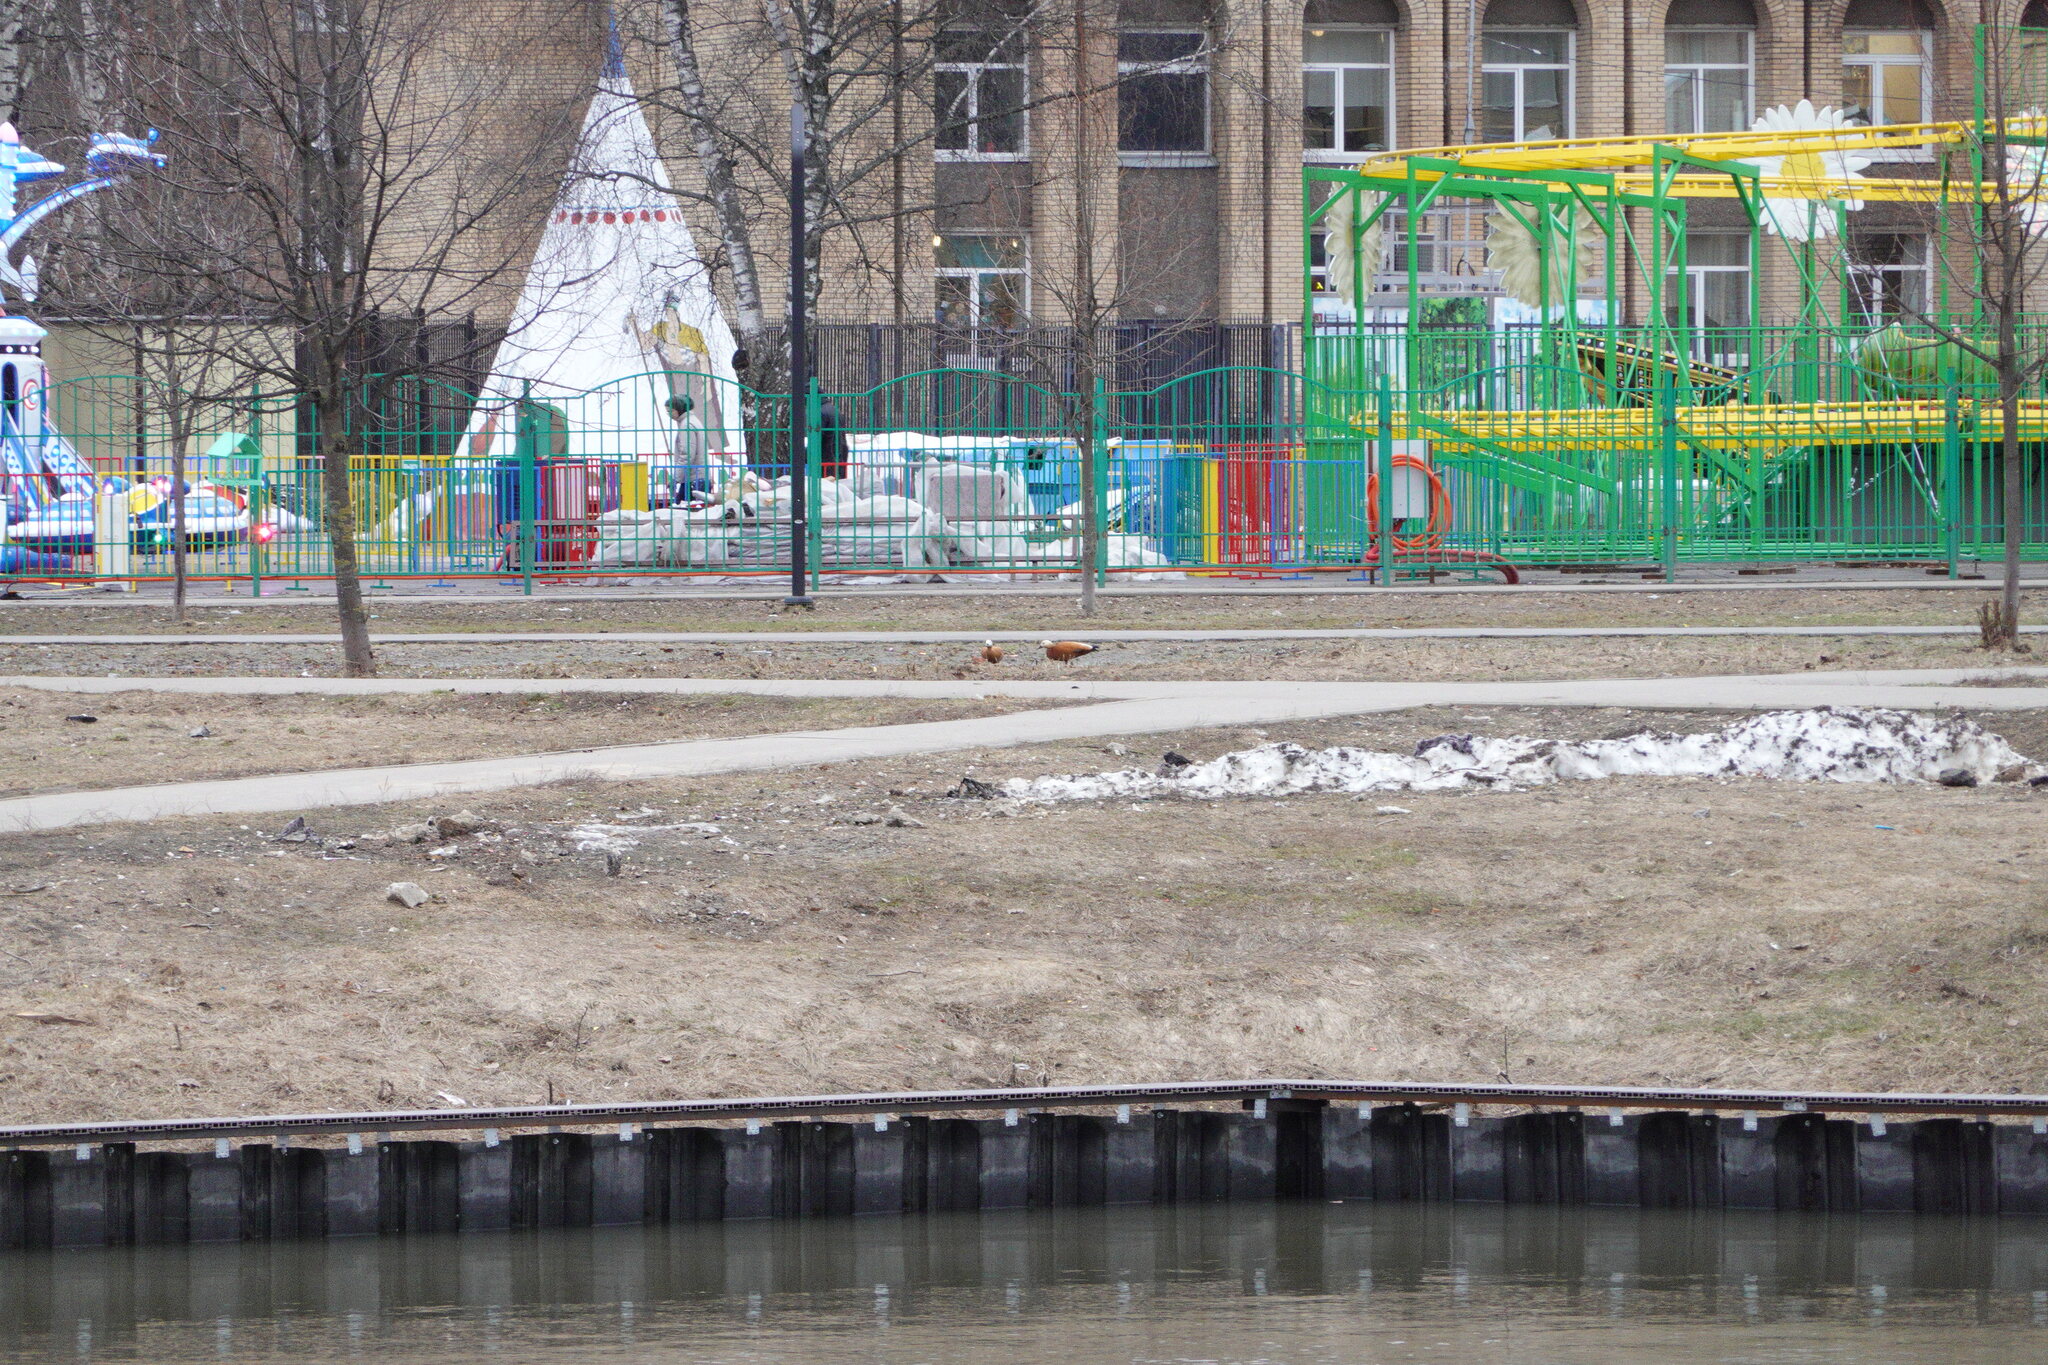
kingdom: Animalia
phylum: Chordata
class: Aves
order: Anseriformes
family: Anatidae
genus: Tadorna
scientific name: Tadorna ferruginea
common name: Ruddy shelduck
